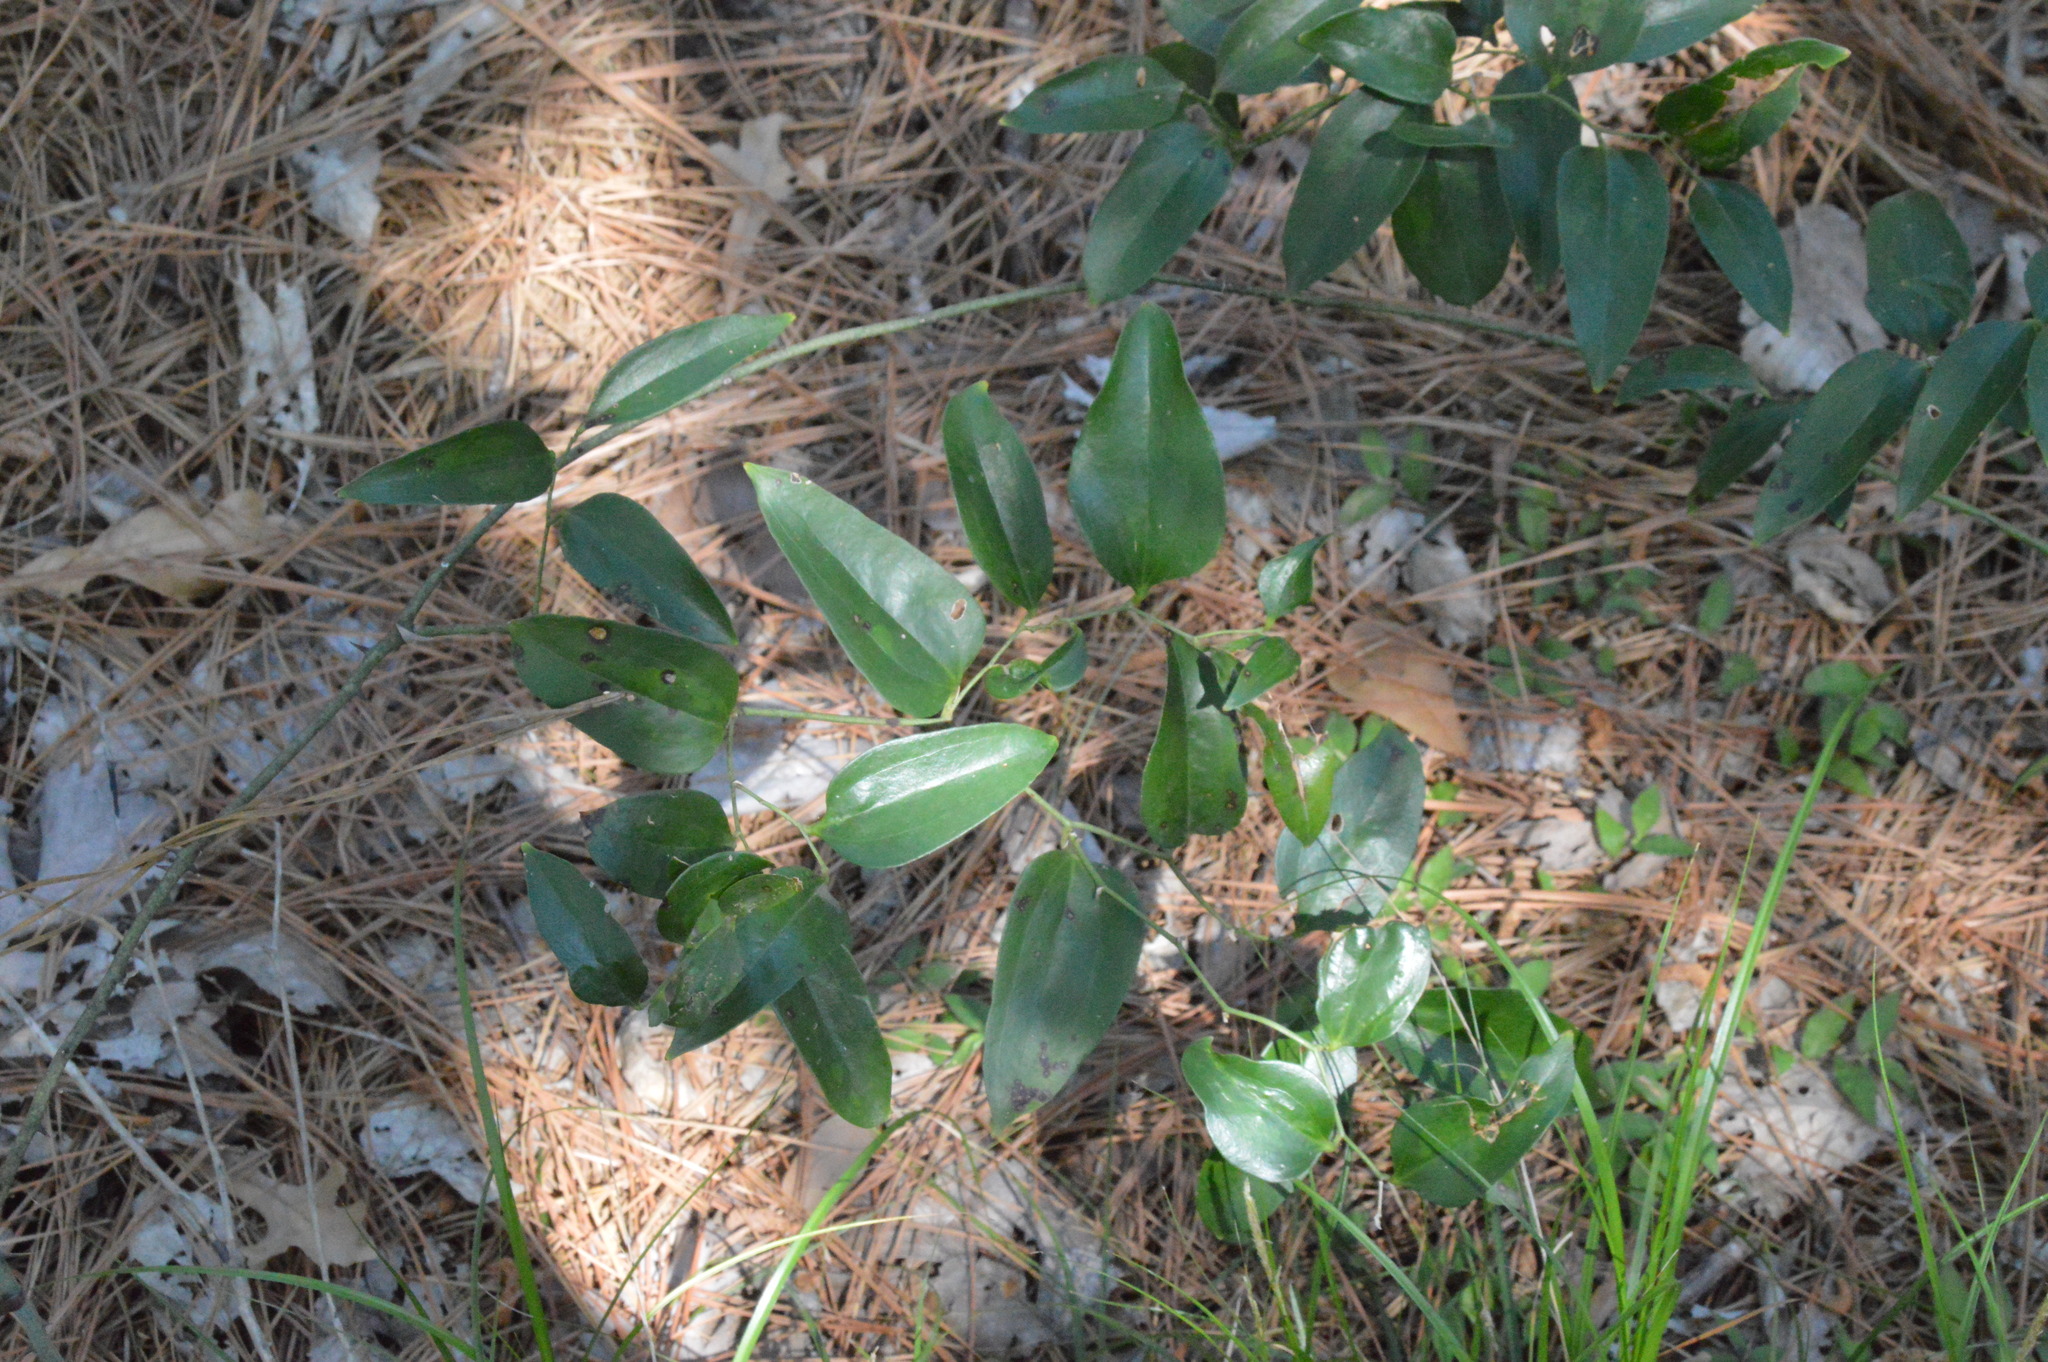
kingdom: Plantae
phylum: Tracheophyta
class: Liliopsida
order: Liliales
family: Smilacaceae
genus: Smilax
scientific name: Smilax maritima
